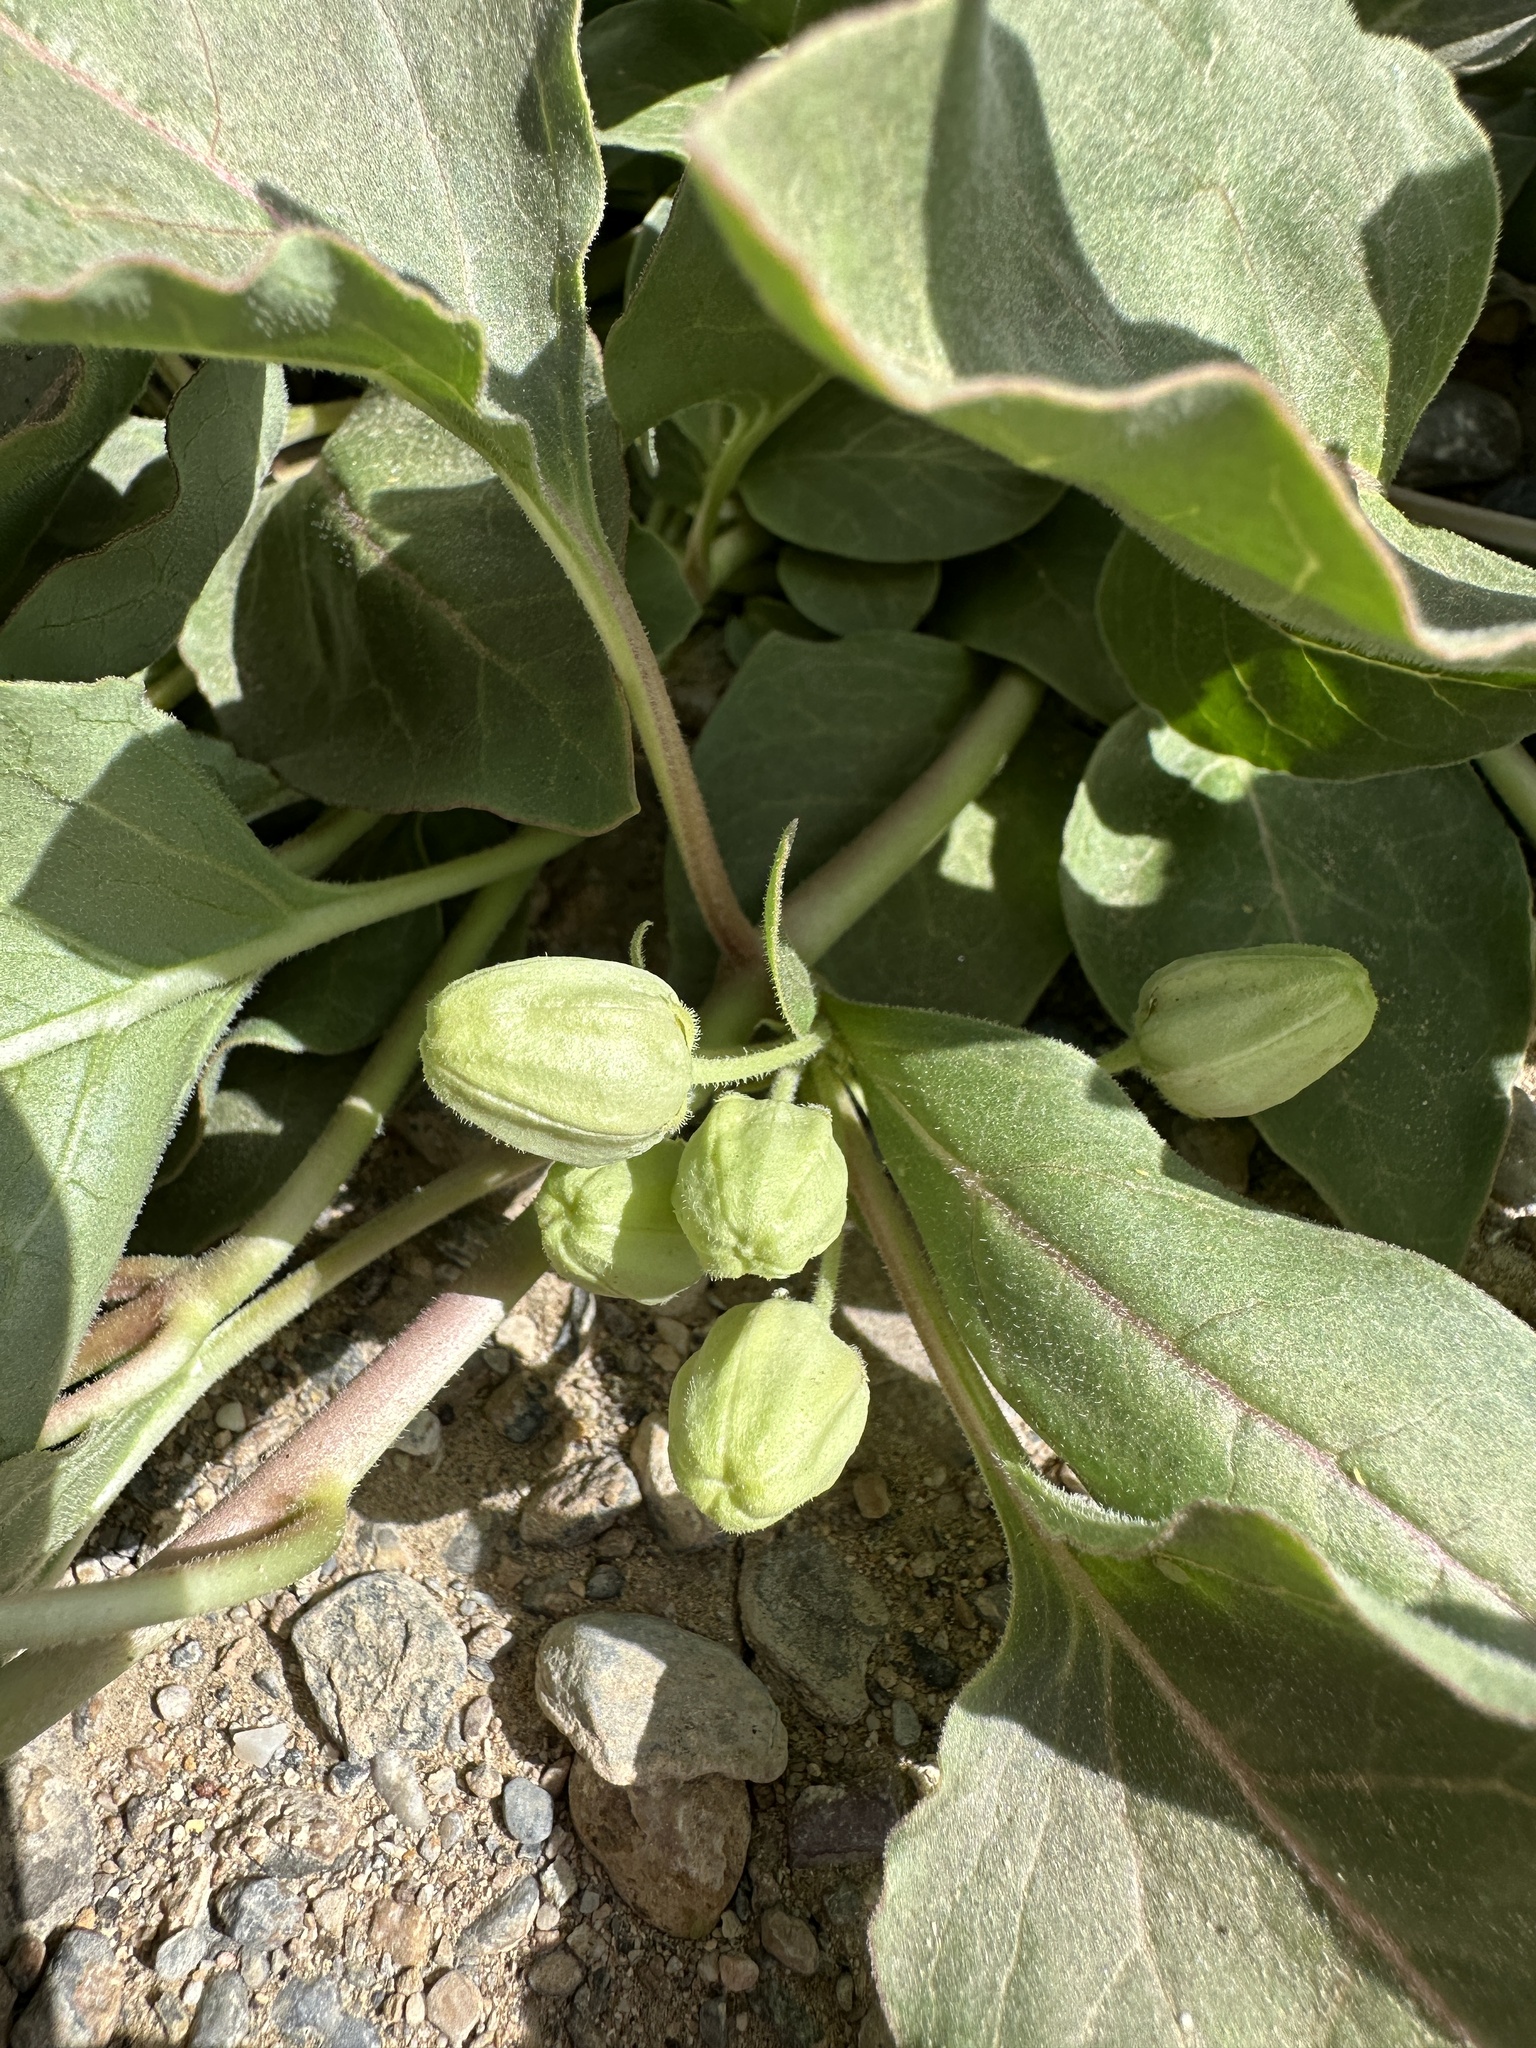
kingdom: Plantae
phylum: Tracheophyta
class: Magnoliopsida
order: Gentianales
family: Apocynaceae
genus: Asclepias
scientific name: Asclepias nyctaginifolia
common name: Mojave milkweed
